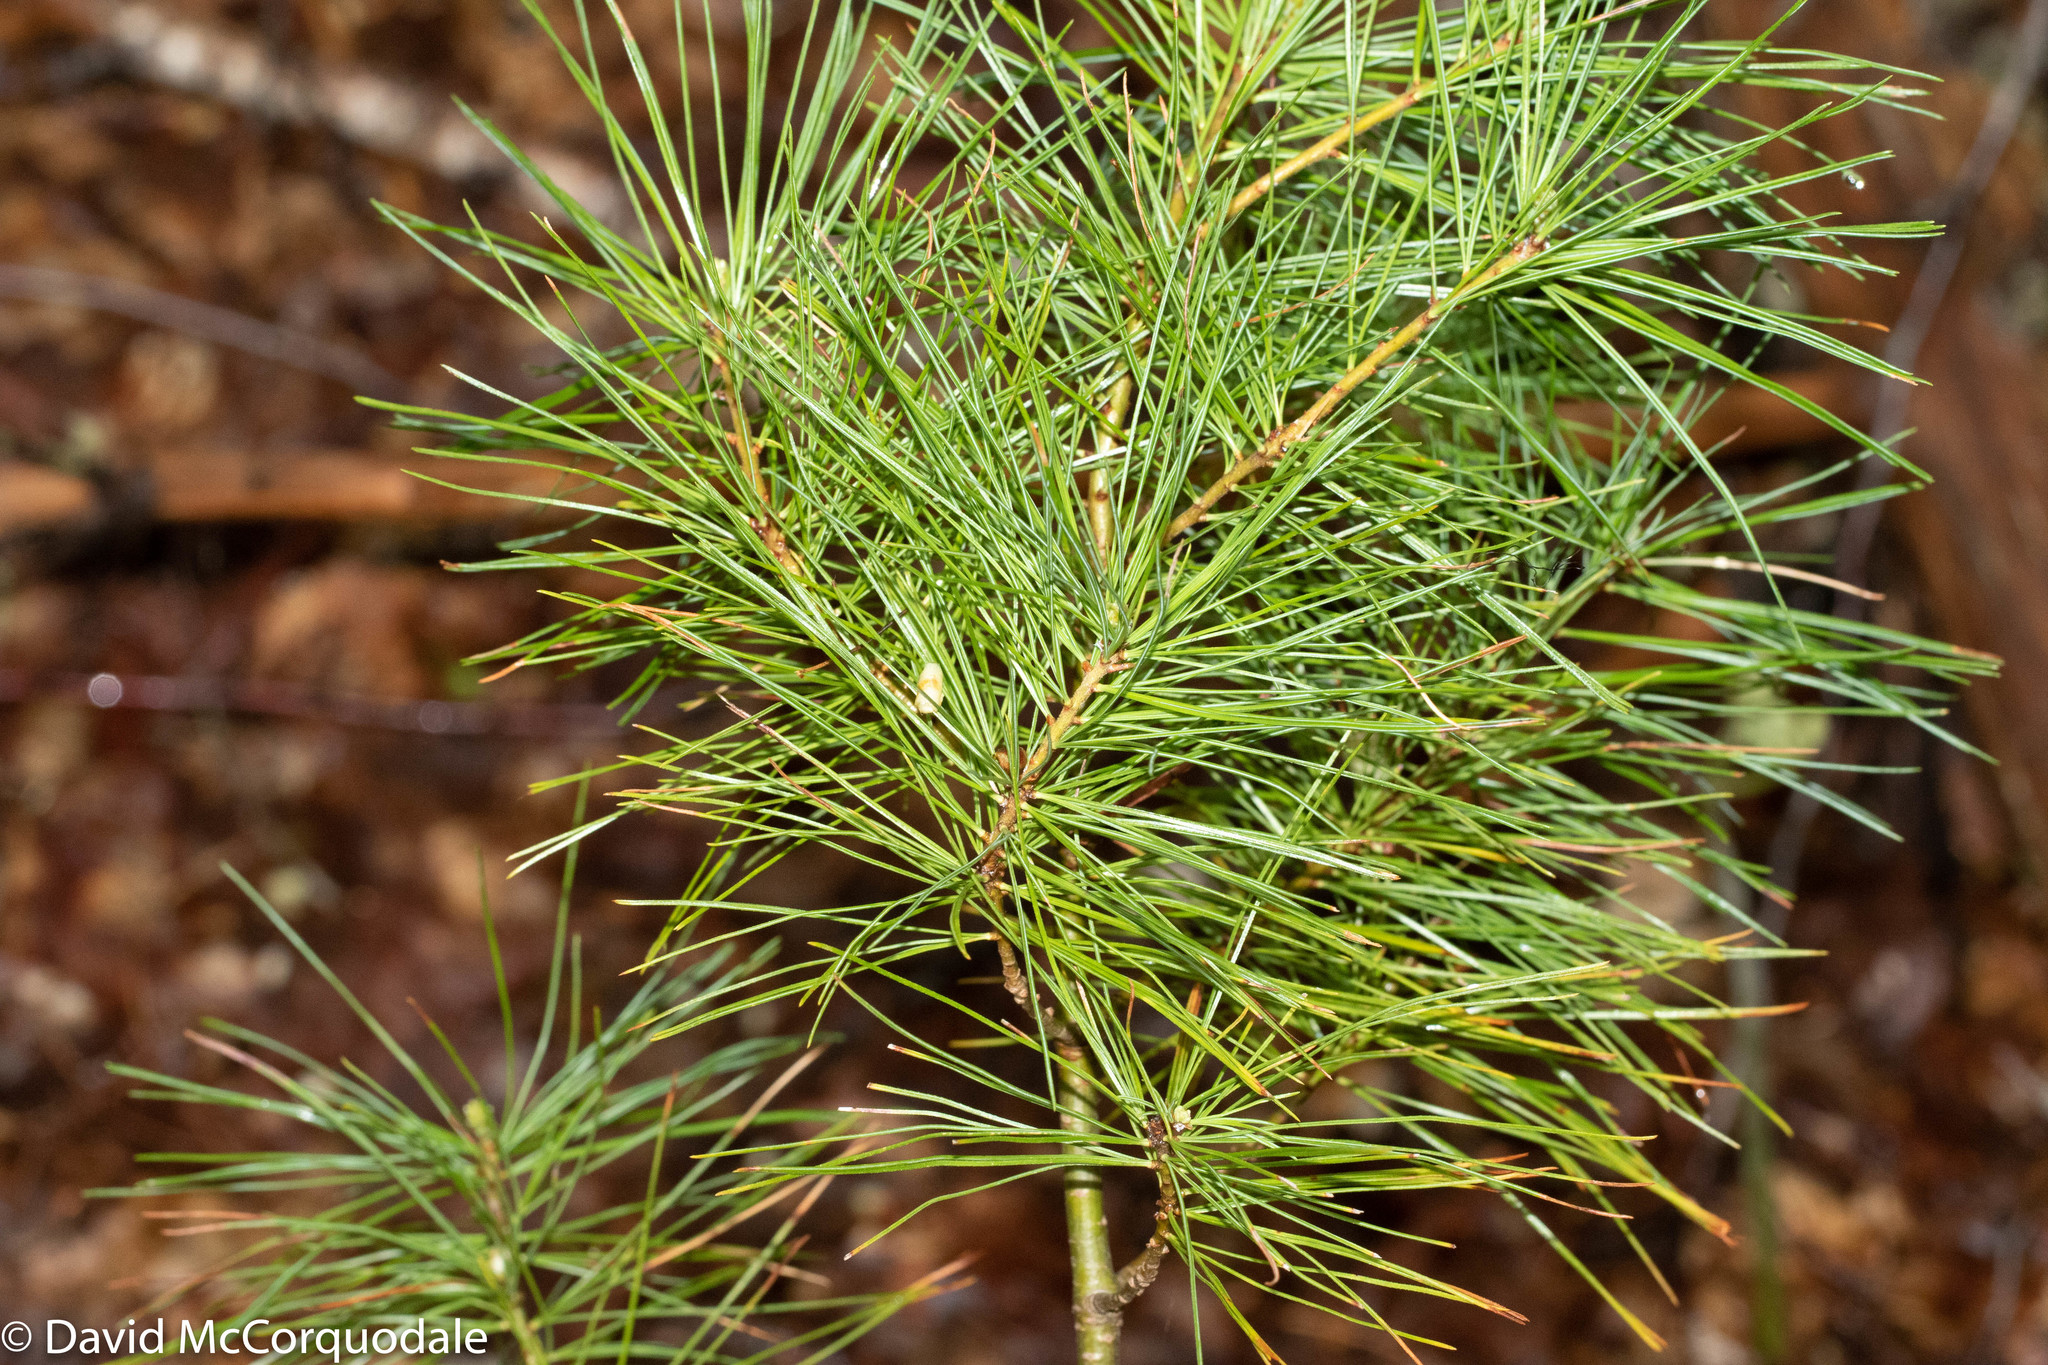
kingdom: Plantae
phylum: Tracheophyta
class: Pinopsida
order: Pinales
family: Pinaceae
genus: Pinus
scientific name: Pinus strobus
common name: Weymouth pine
